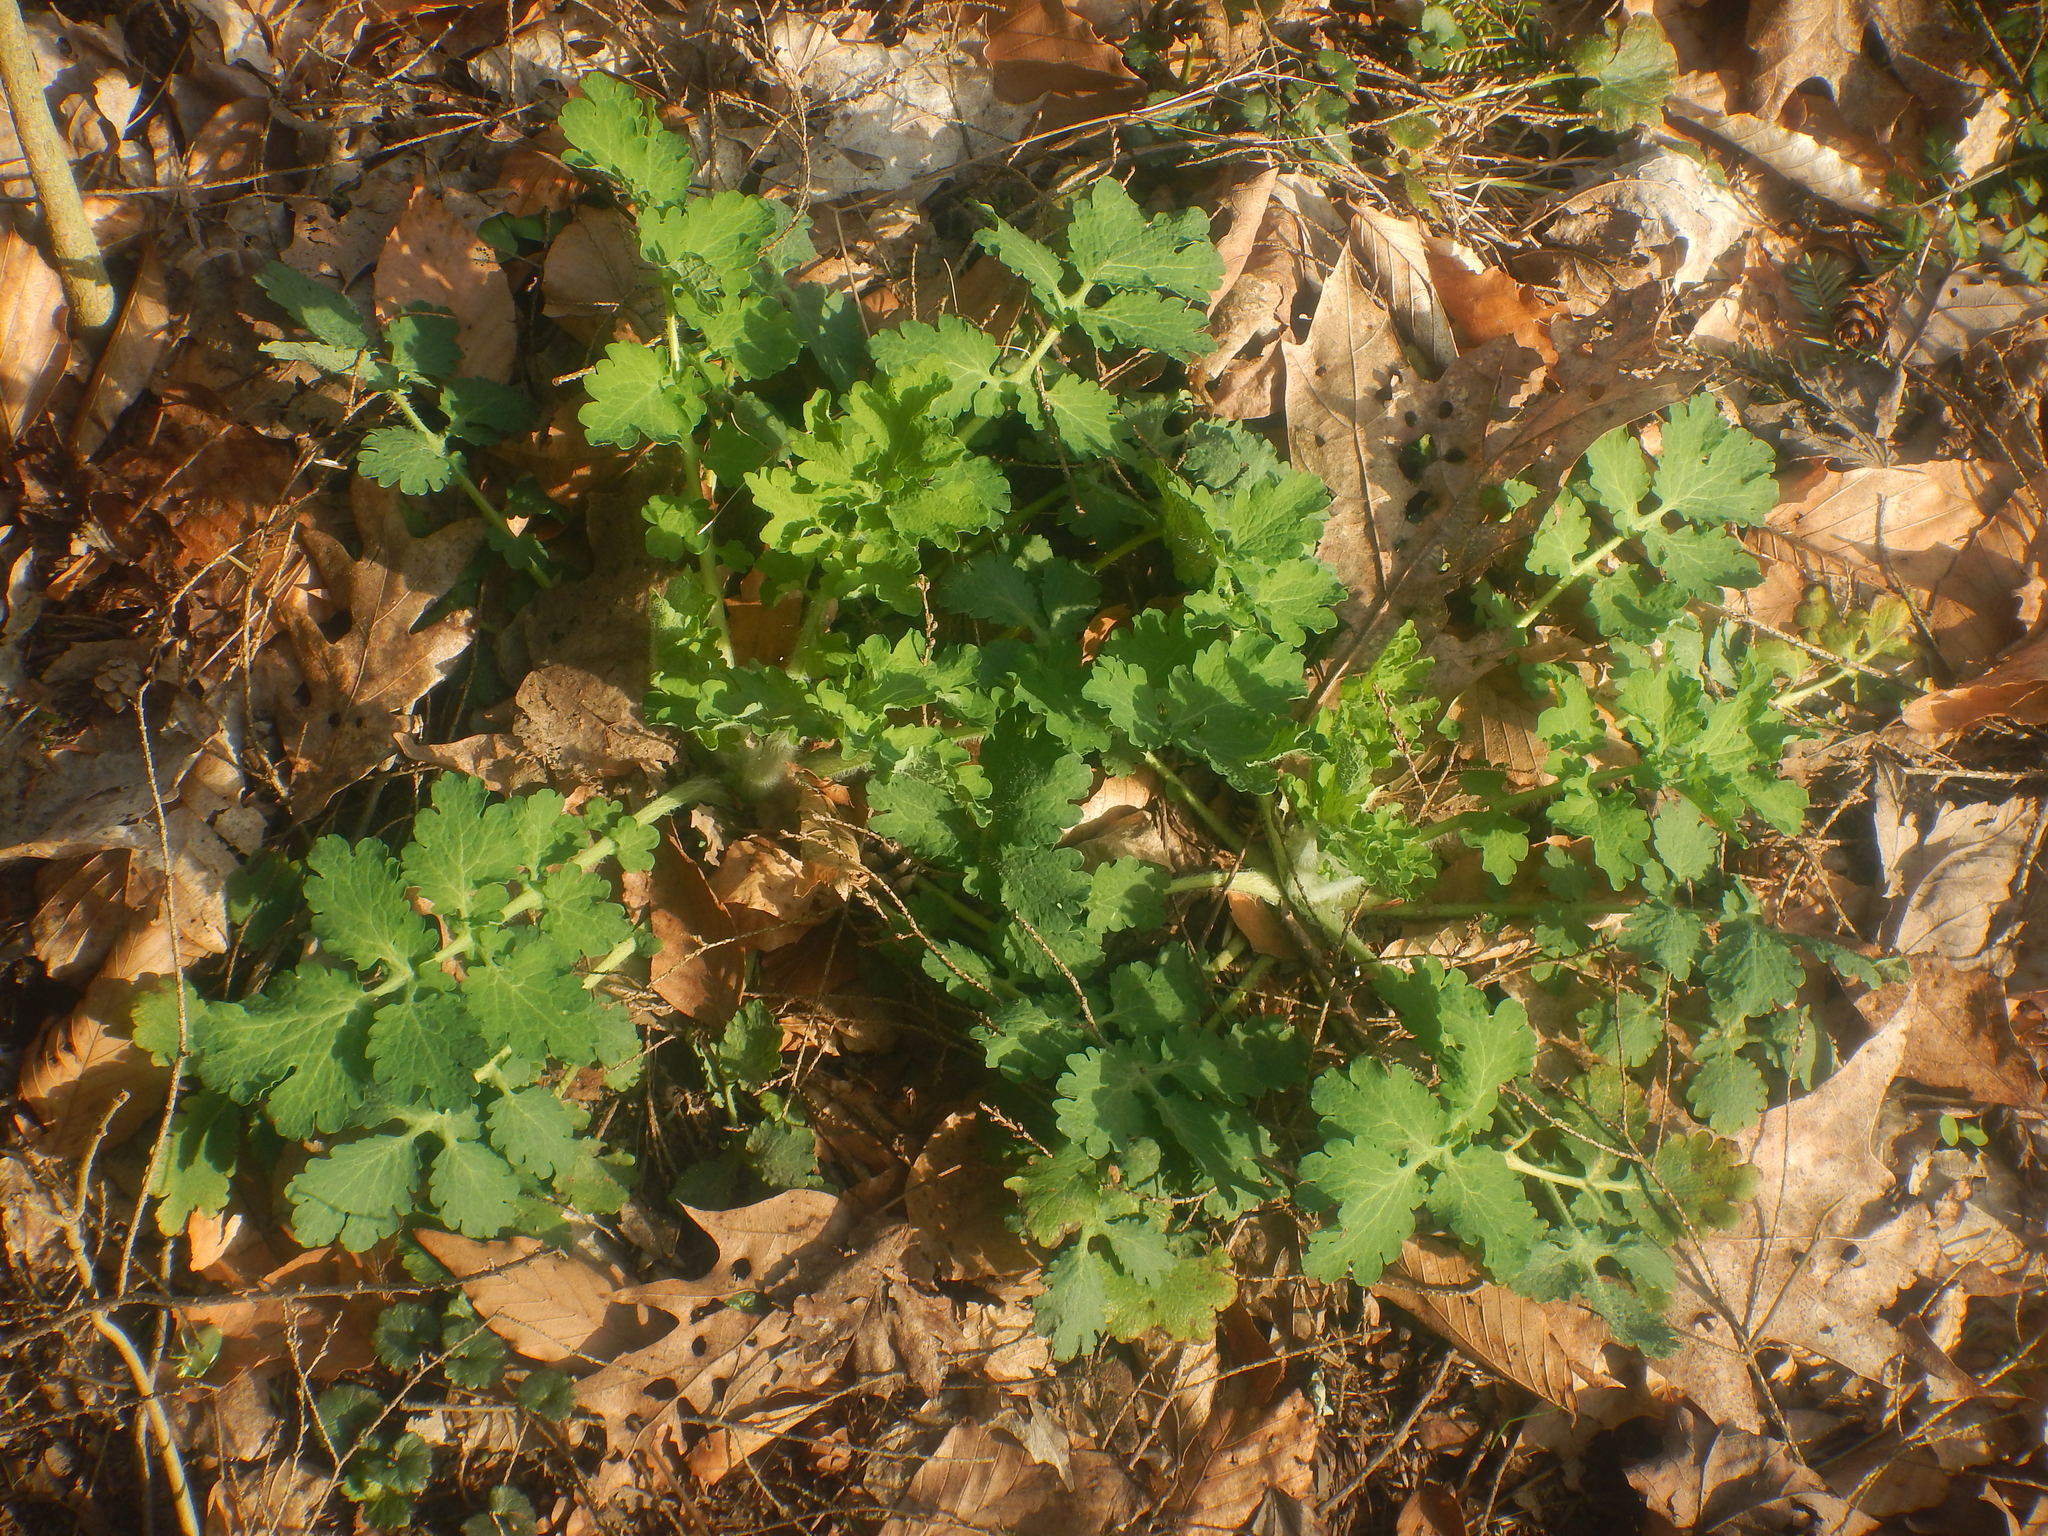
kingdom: Plantae
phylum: Tracheophyta
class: Magnoliopsida
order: Ranunculales
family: Papaveraceae
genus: Chelidonium
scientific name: Chelidonium majus
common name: Greater celandine
